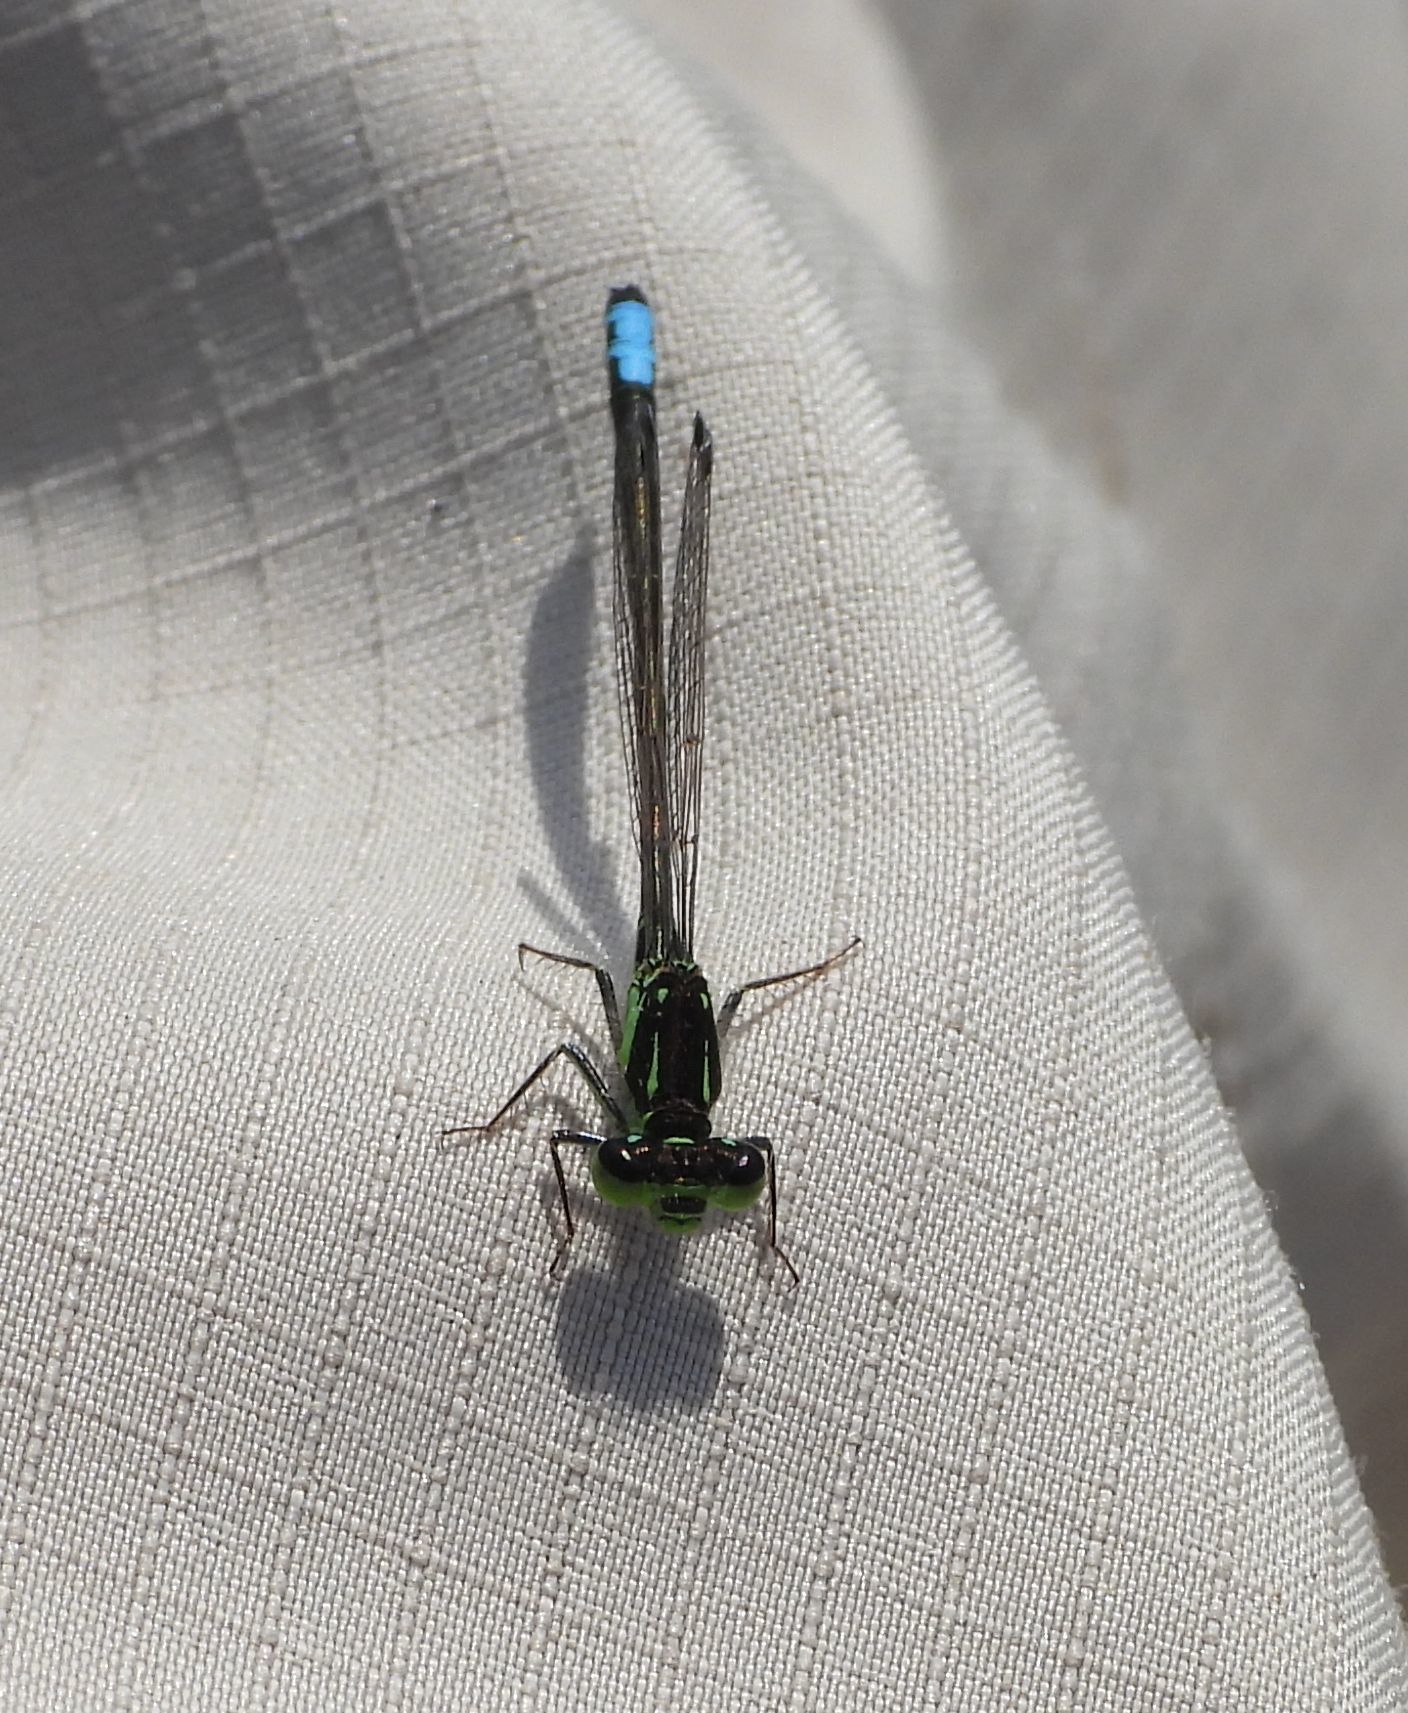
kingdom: Animalia
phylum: Arthropoda
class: Insecta
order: Odonata
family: Coenagrionidae
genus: Ischnura
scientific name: Ischnura verticalis
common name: Eastern forktail
